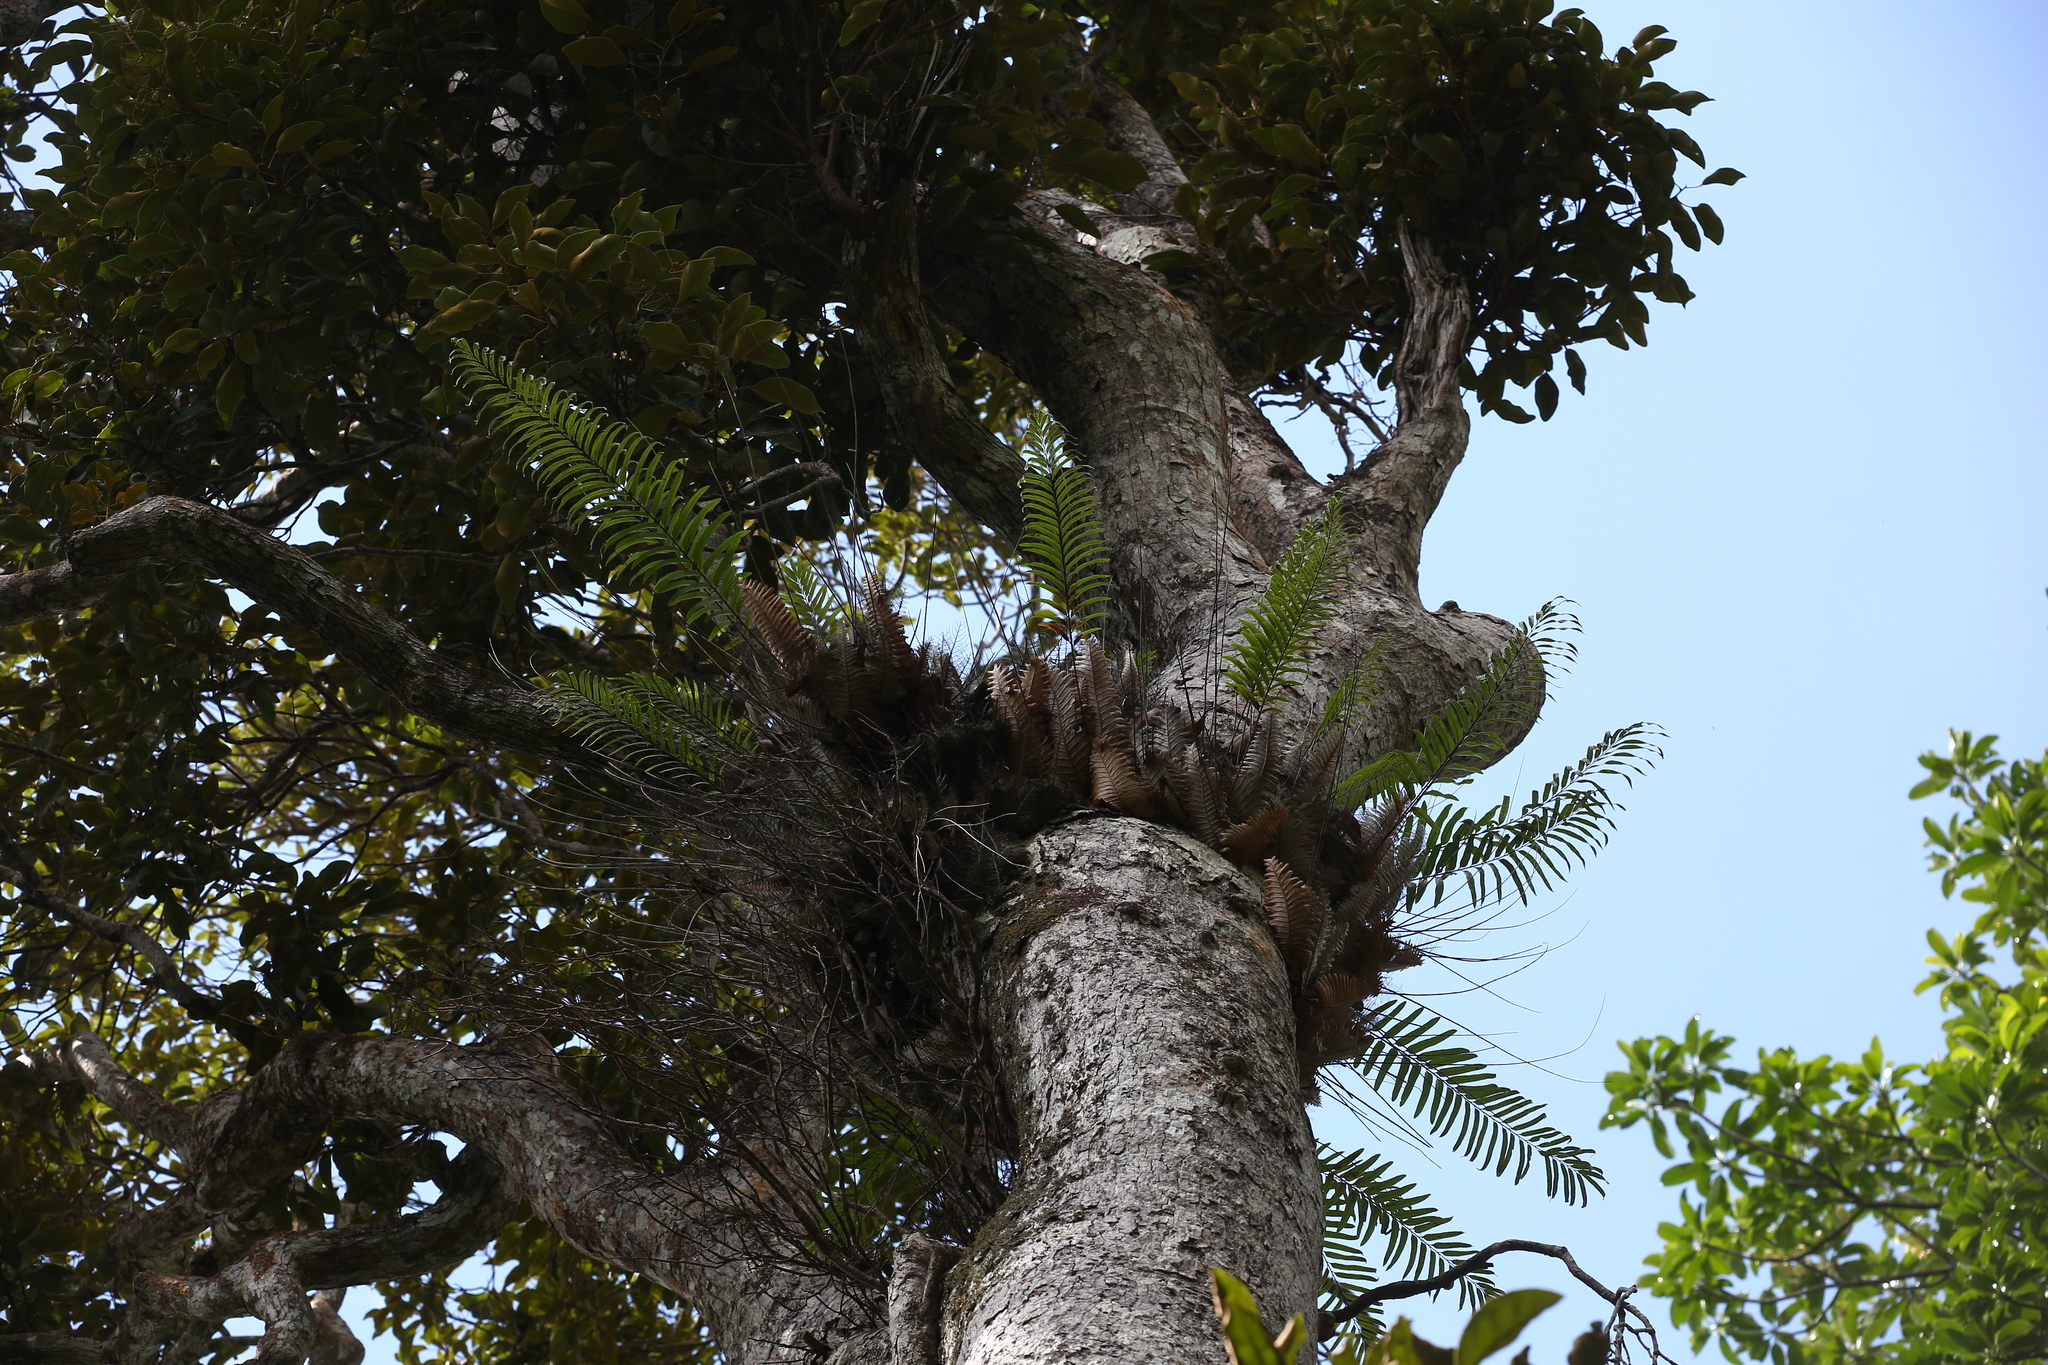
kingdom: Plantae
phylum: Tracheophyta
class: Polypodiopsida
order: Polypodiales
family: Polypodiaceae
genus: Drynaria
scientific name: Drynaria rigidula
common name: Basket fern
